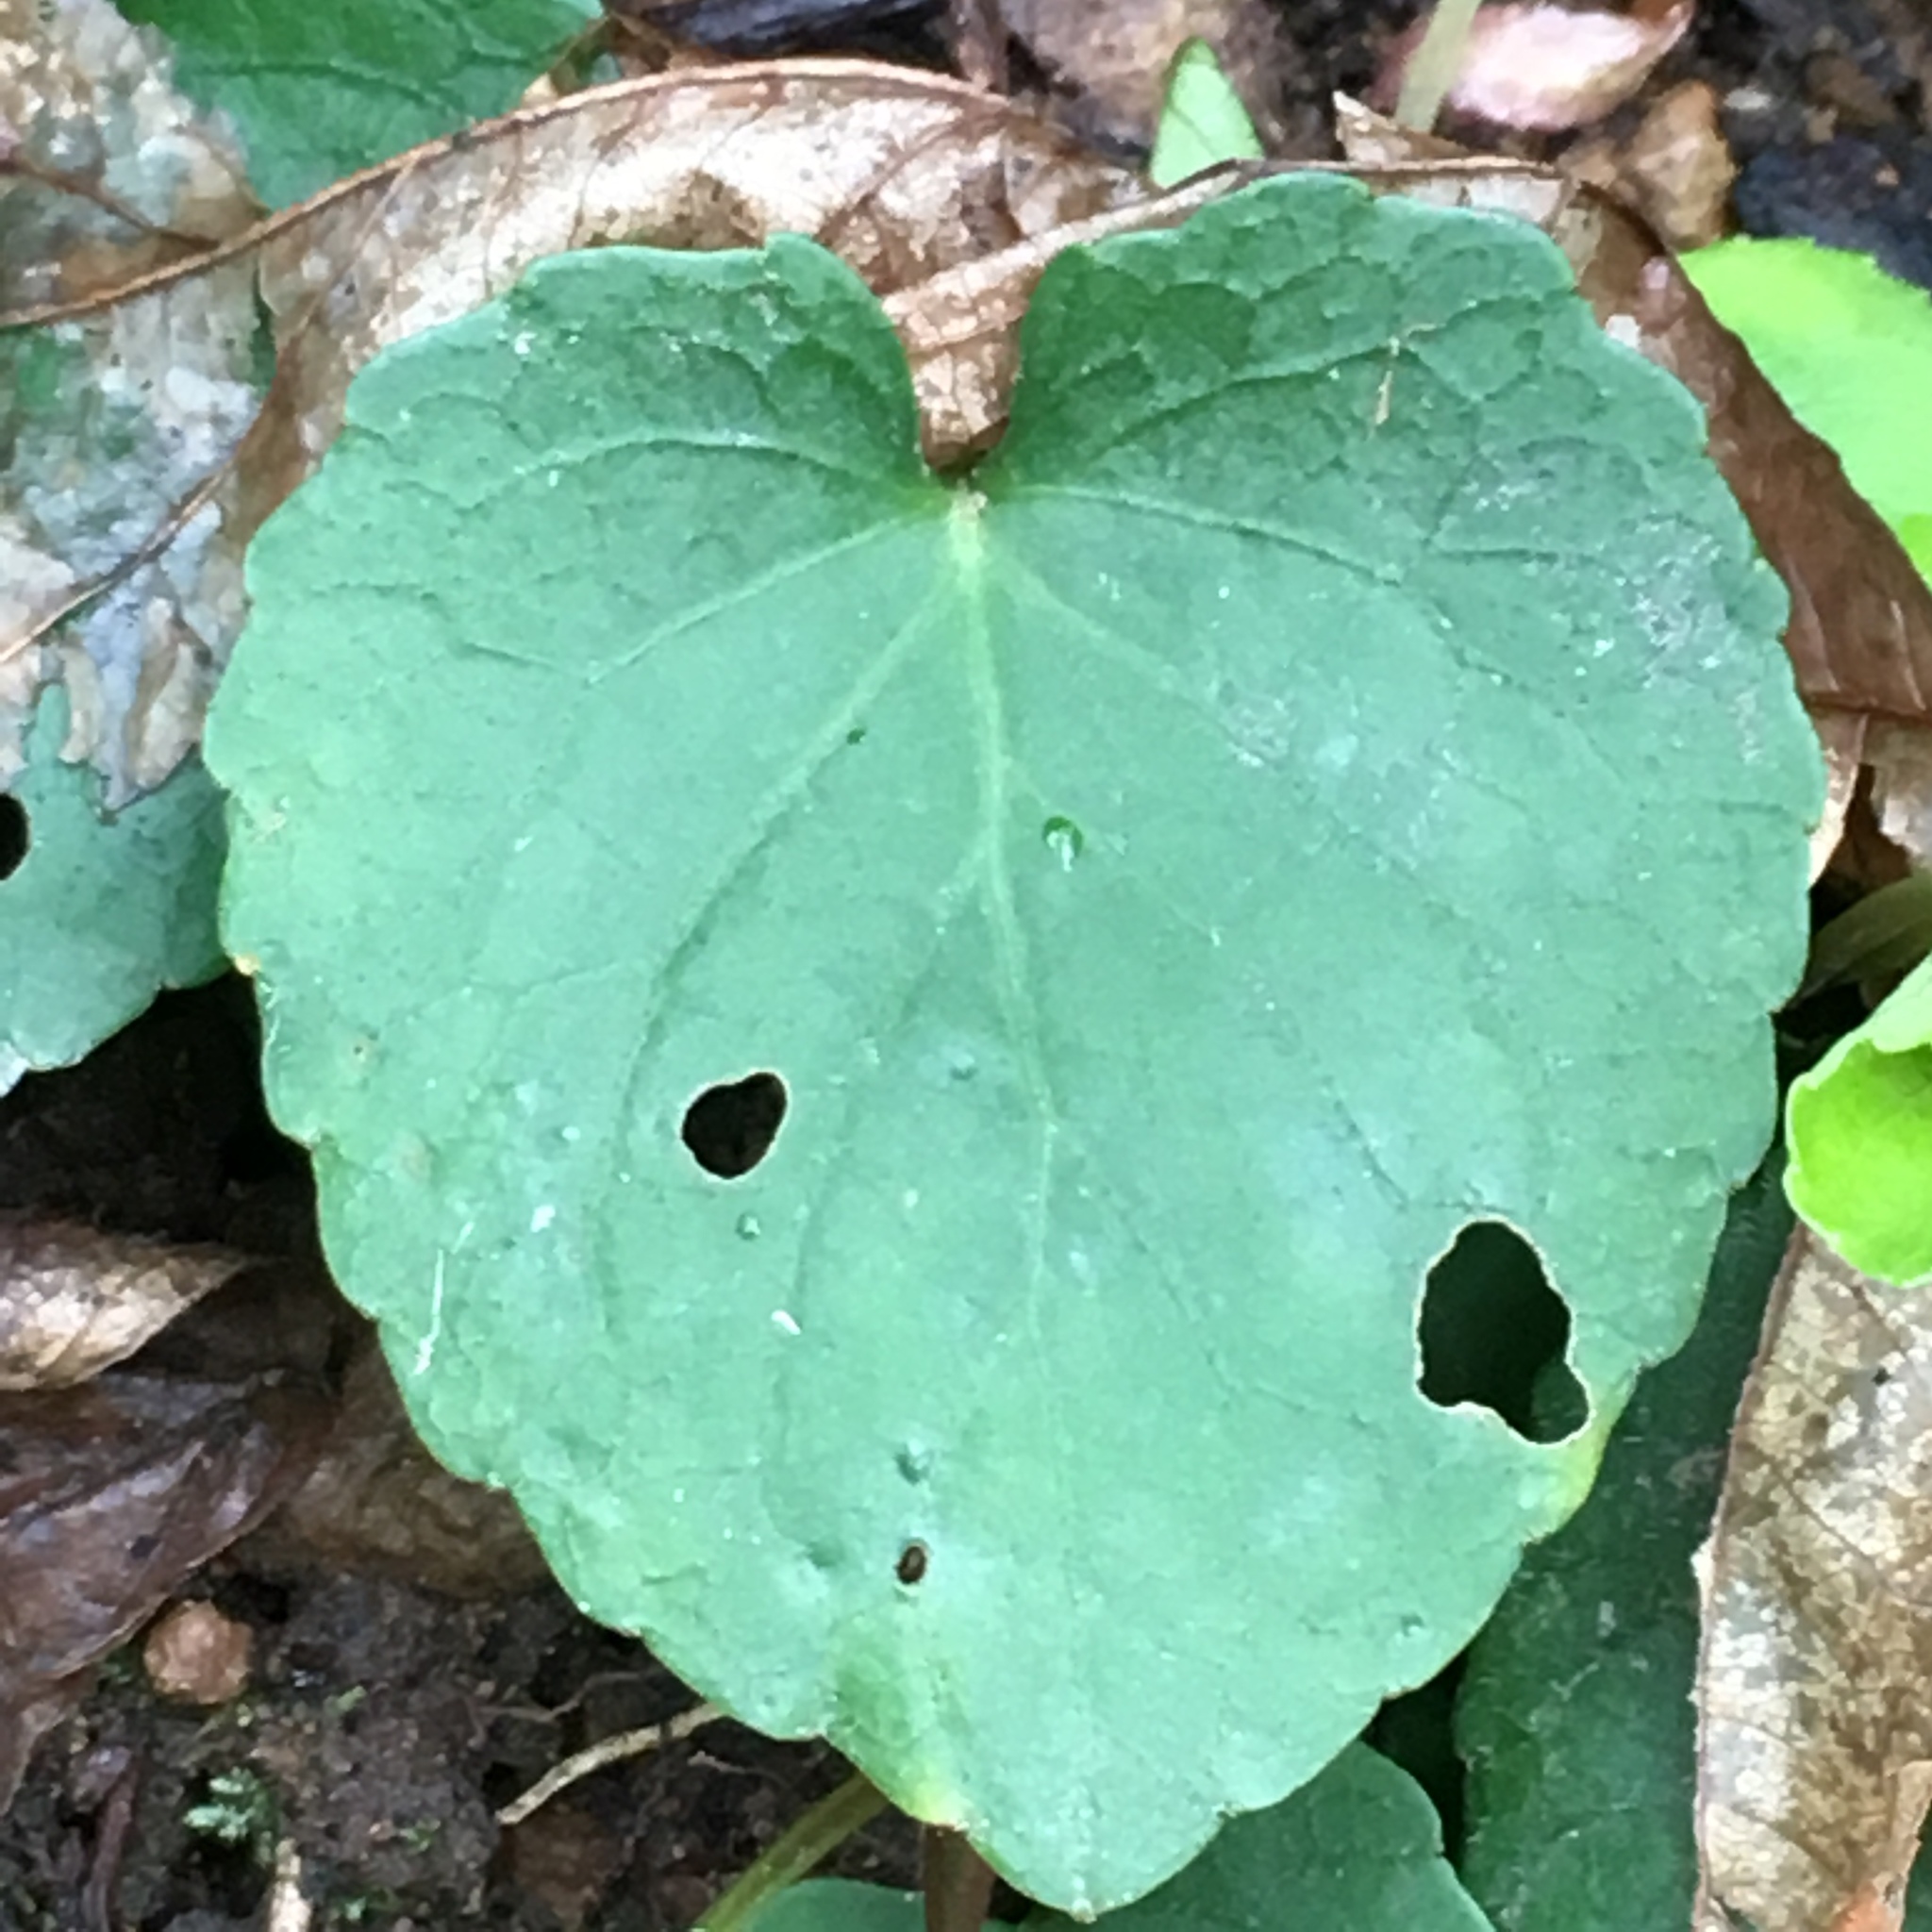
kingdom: Plantae
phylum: Tracheophyta
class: Magnoliopsida
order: Malpighiales
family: Violaceae
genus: Viola
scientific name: Viola sempervirens
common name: Evergreen violet
